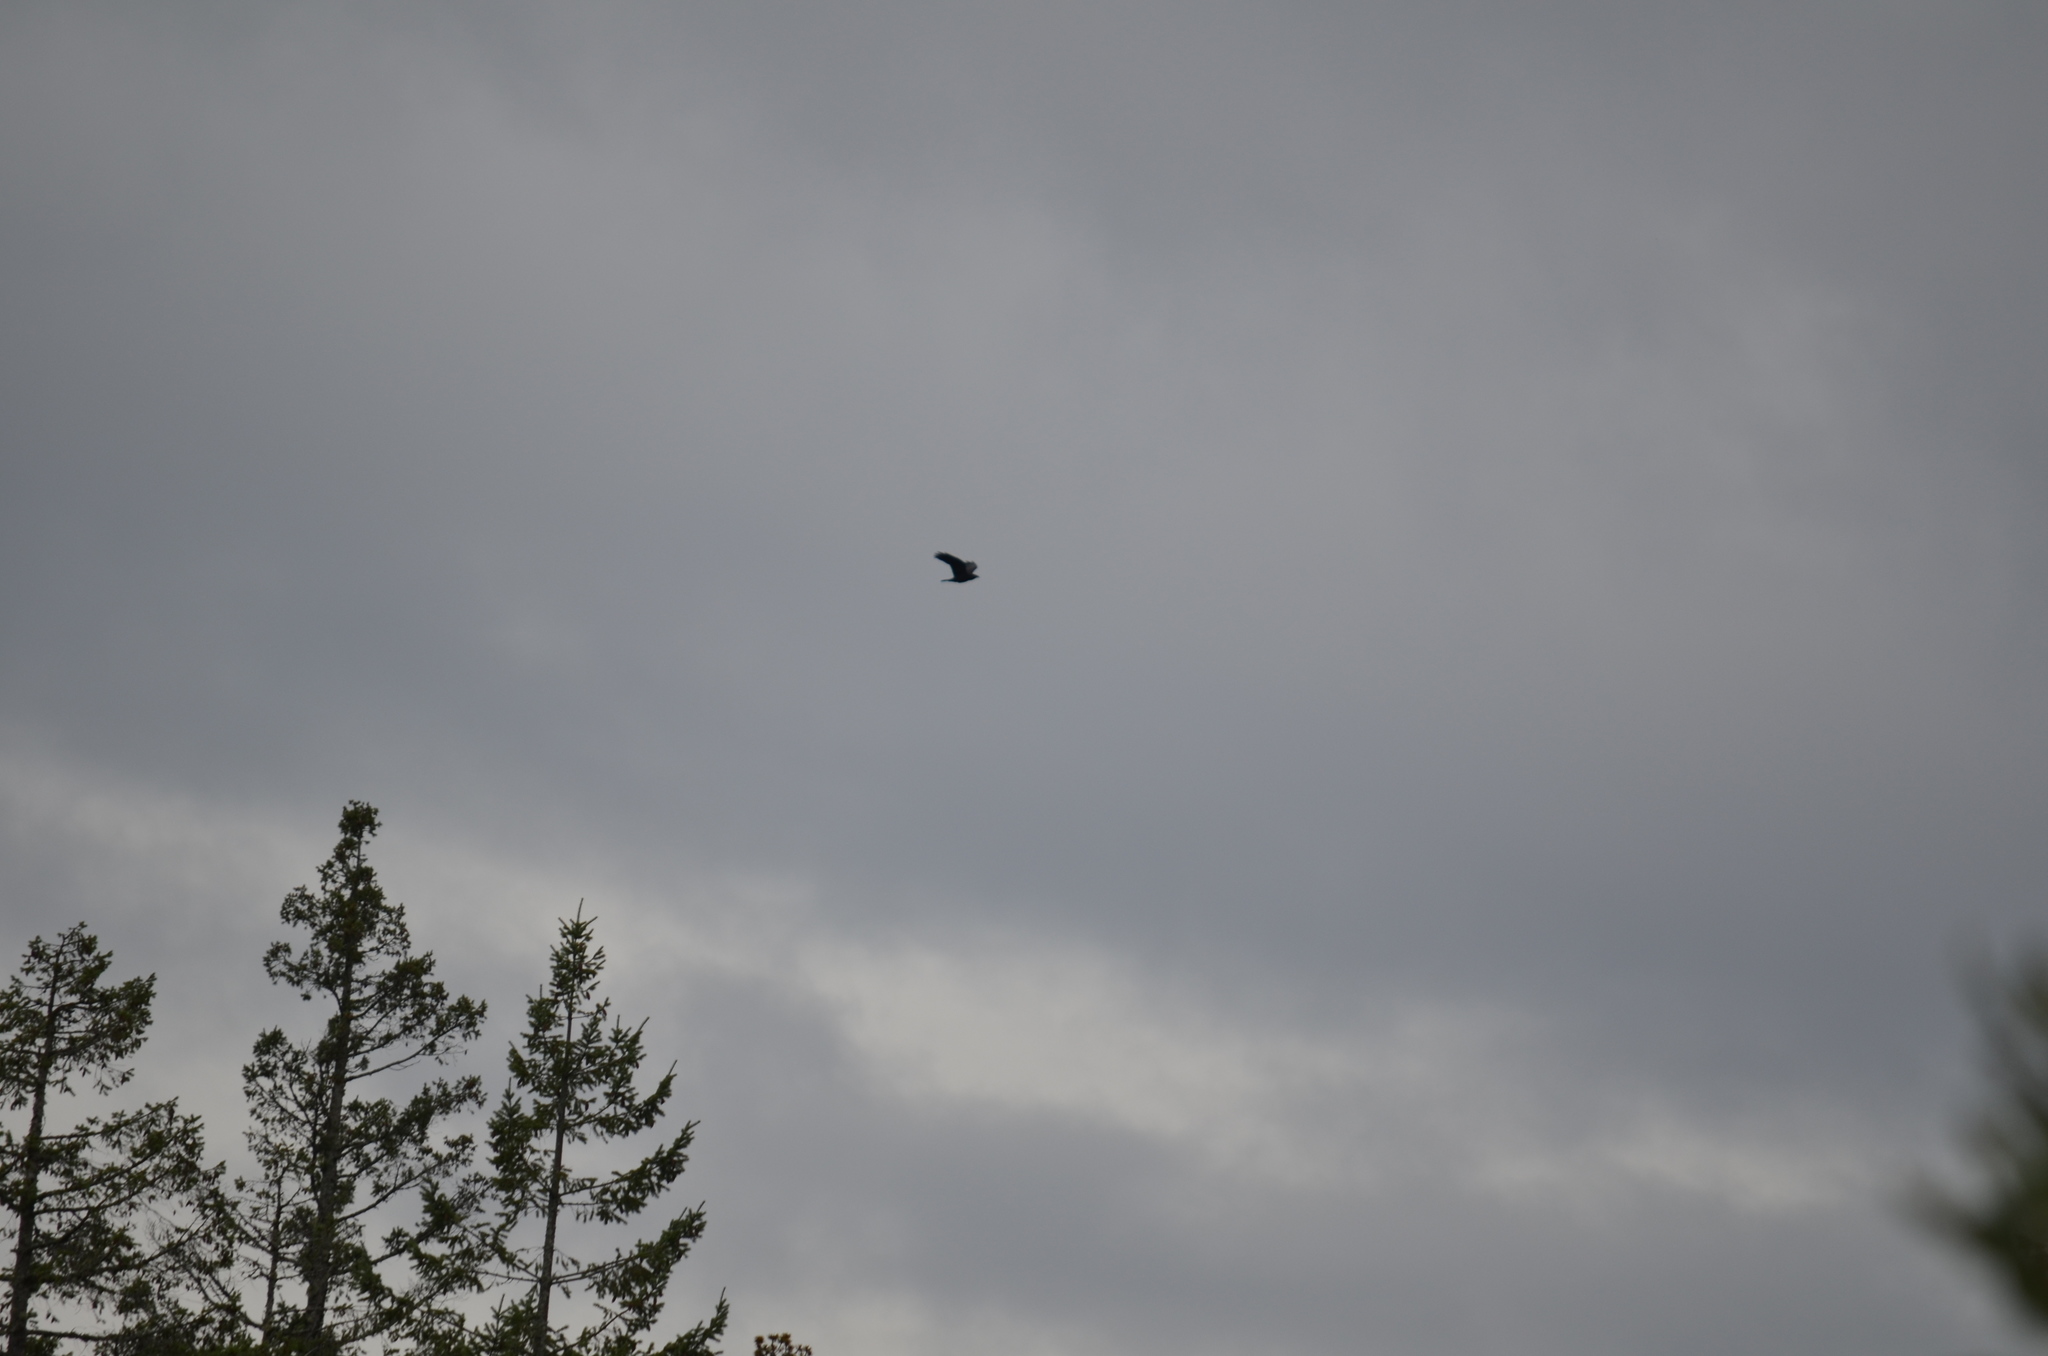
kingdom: Animalia
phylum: Chordata
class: Aves
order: Passeriformes
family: Corvidae
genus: Corvus
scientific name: Corvus corax
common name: Common raven
